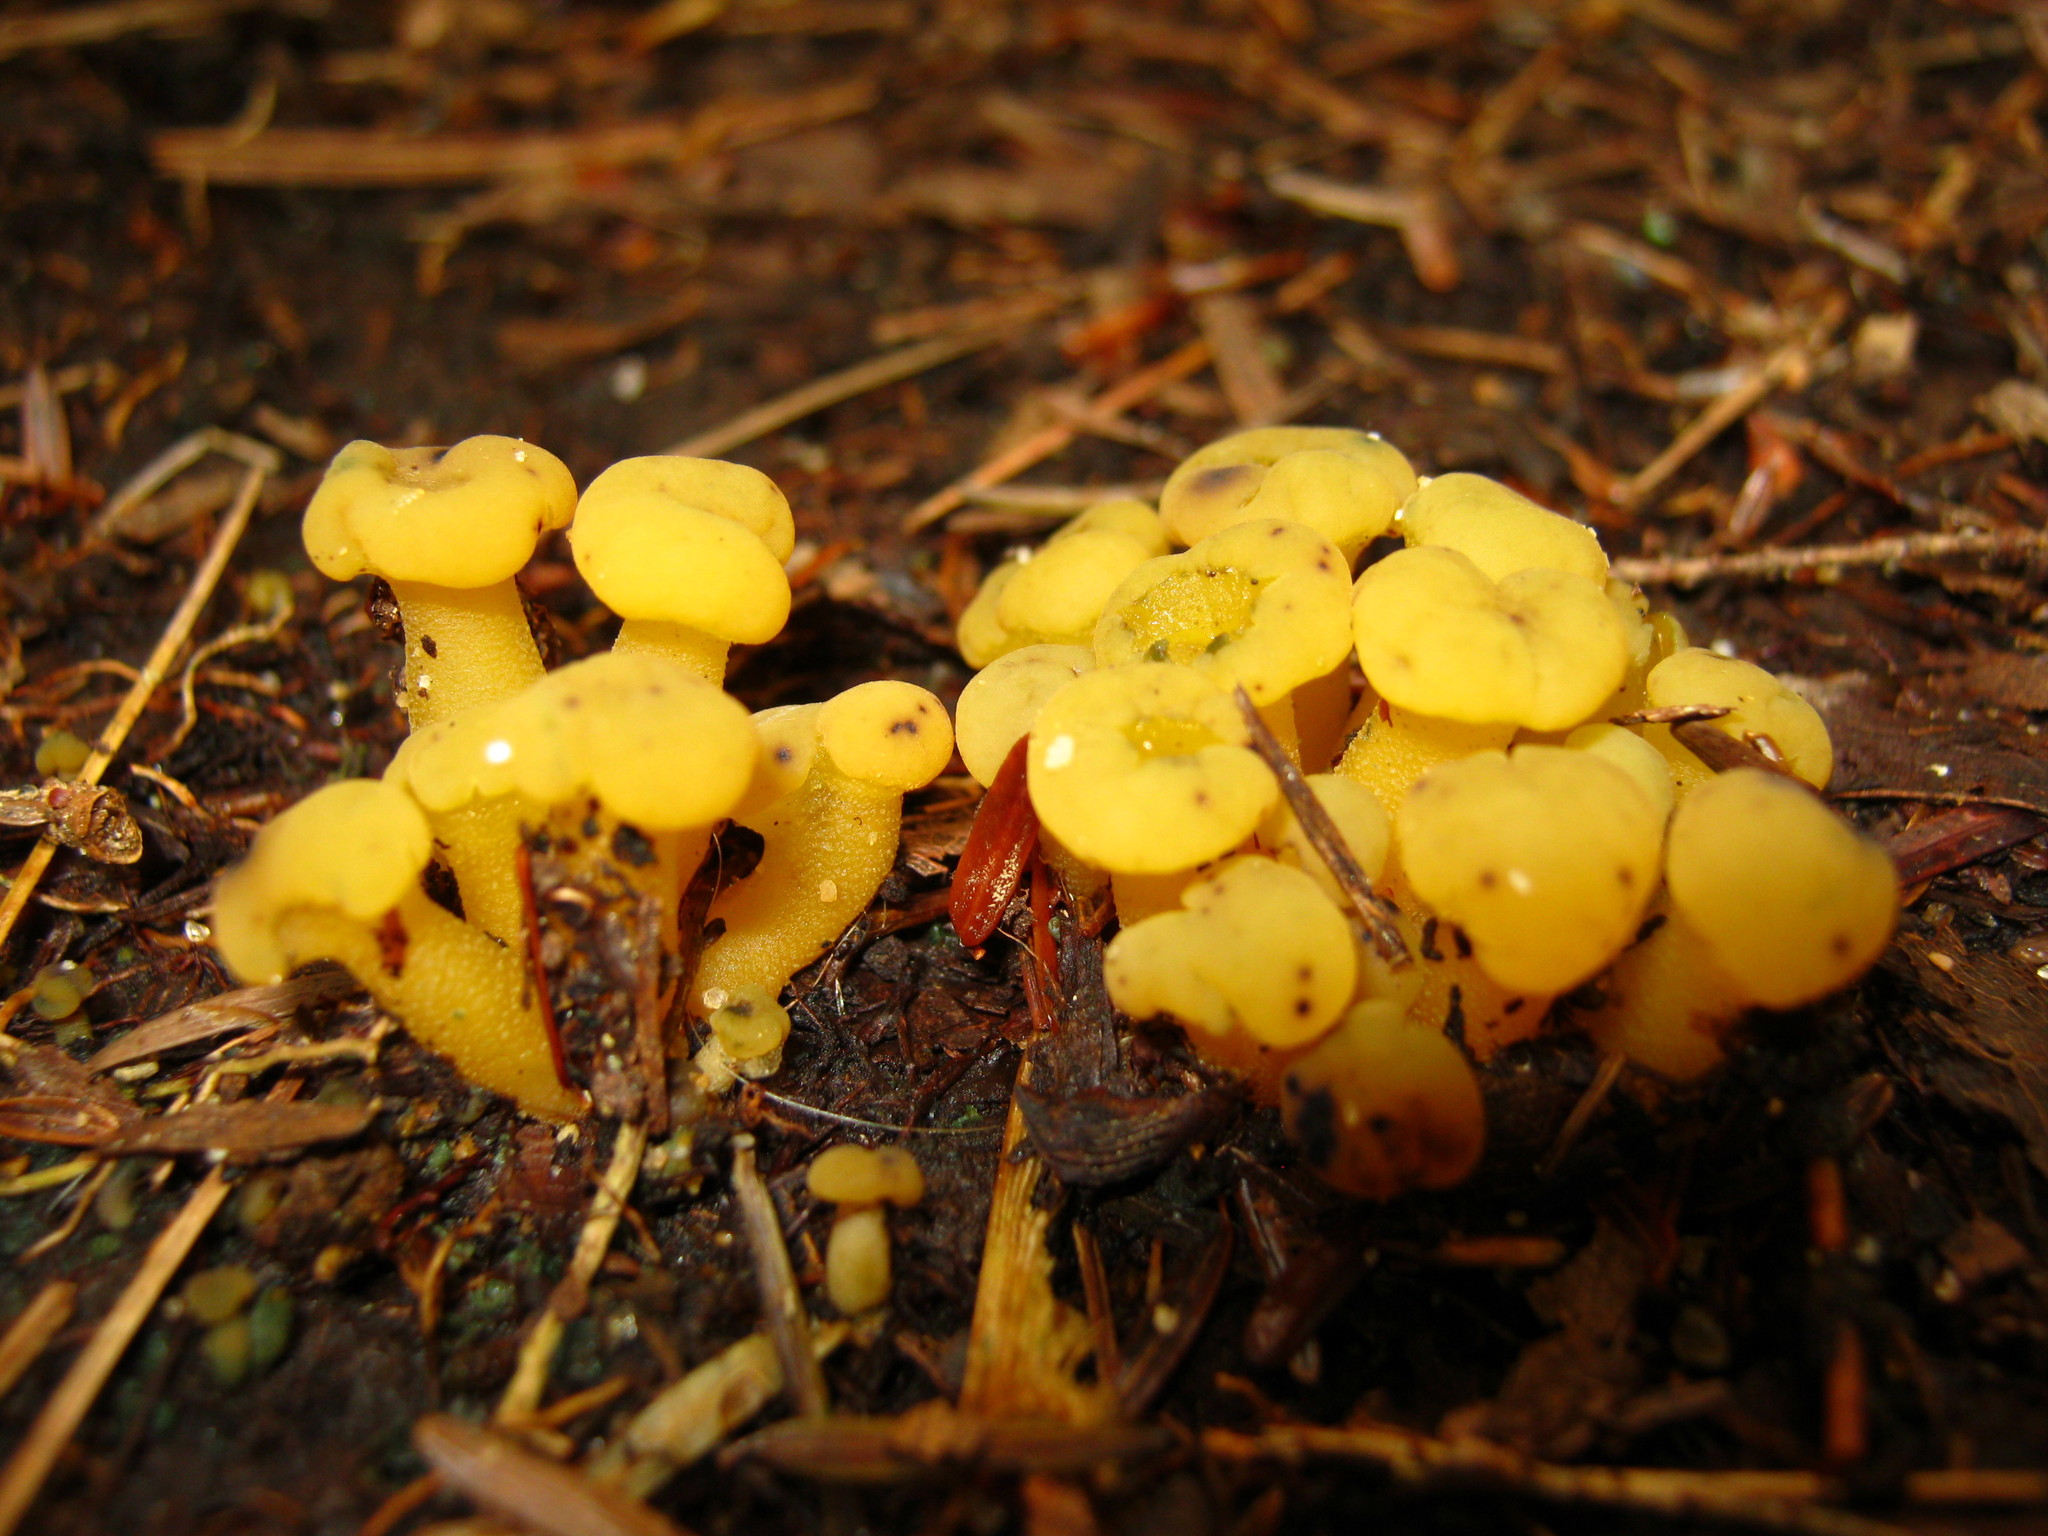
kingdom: Fungi
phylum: Ascomycota
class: Sordariomycetes
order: Hypocreales
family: Hypocreaceae
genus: Hypomyces
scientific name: Hypomyces leotiicola
